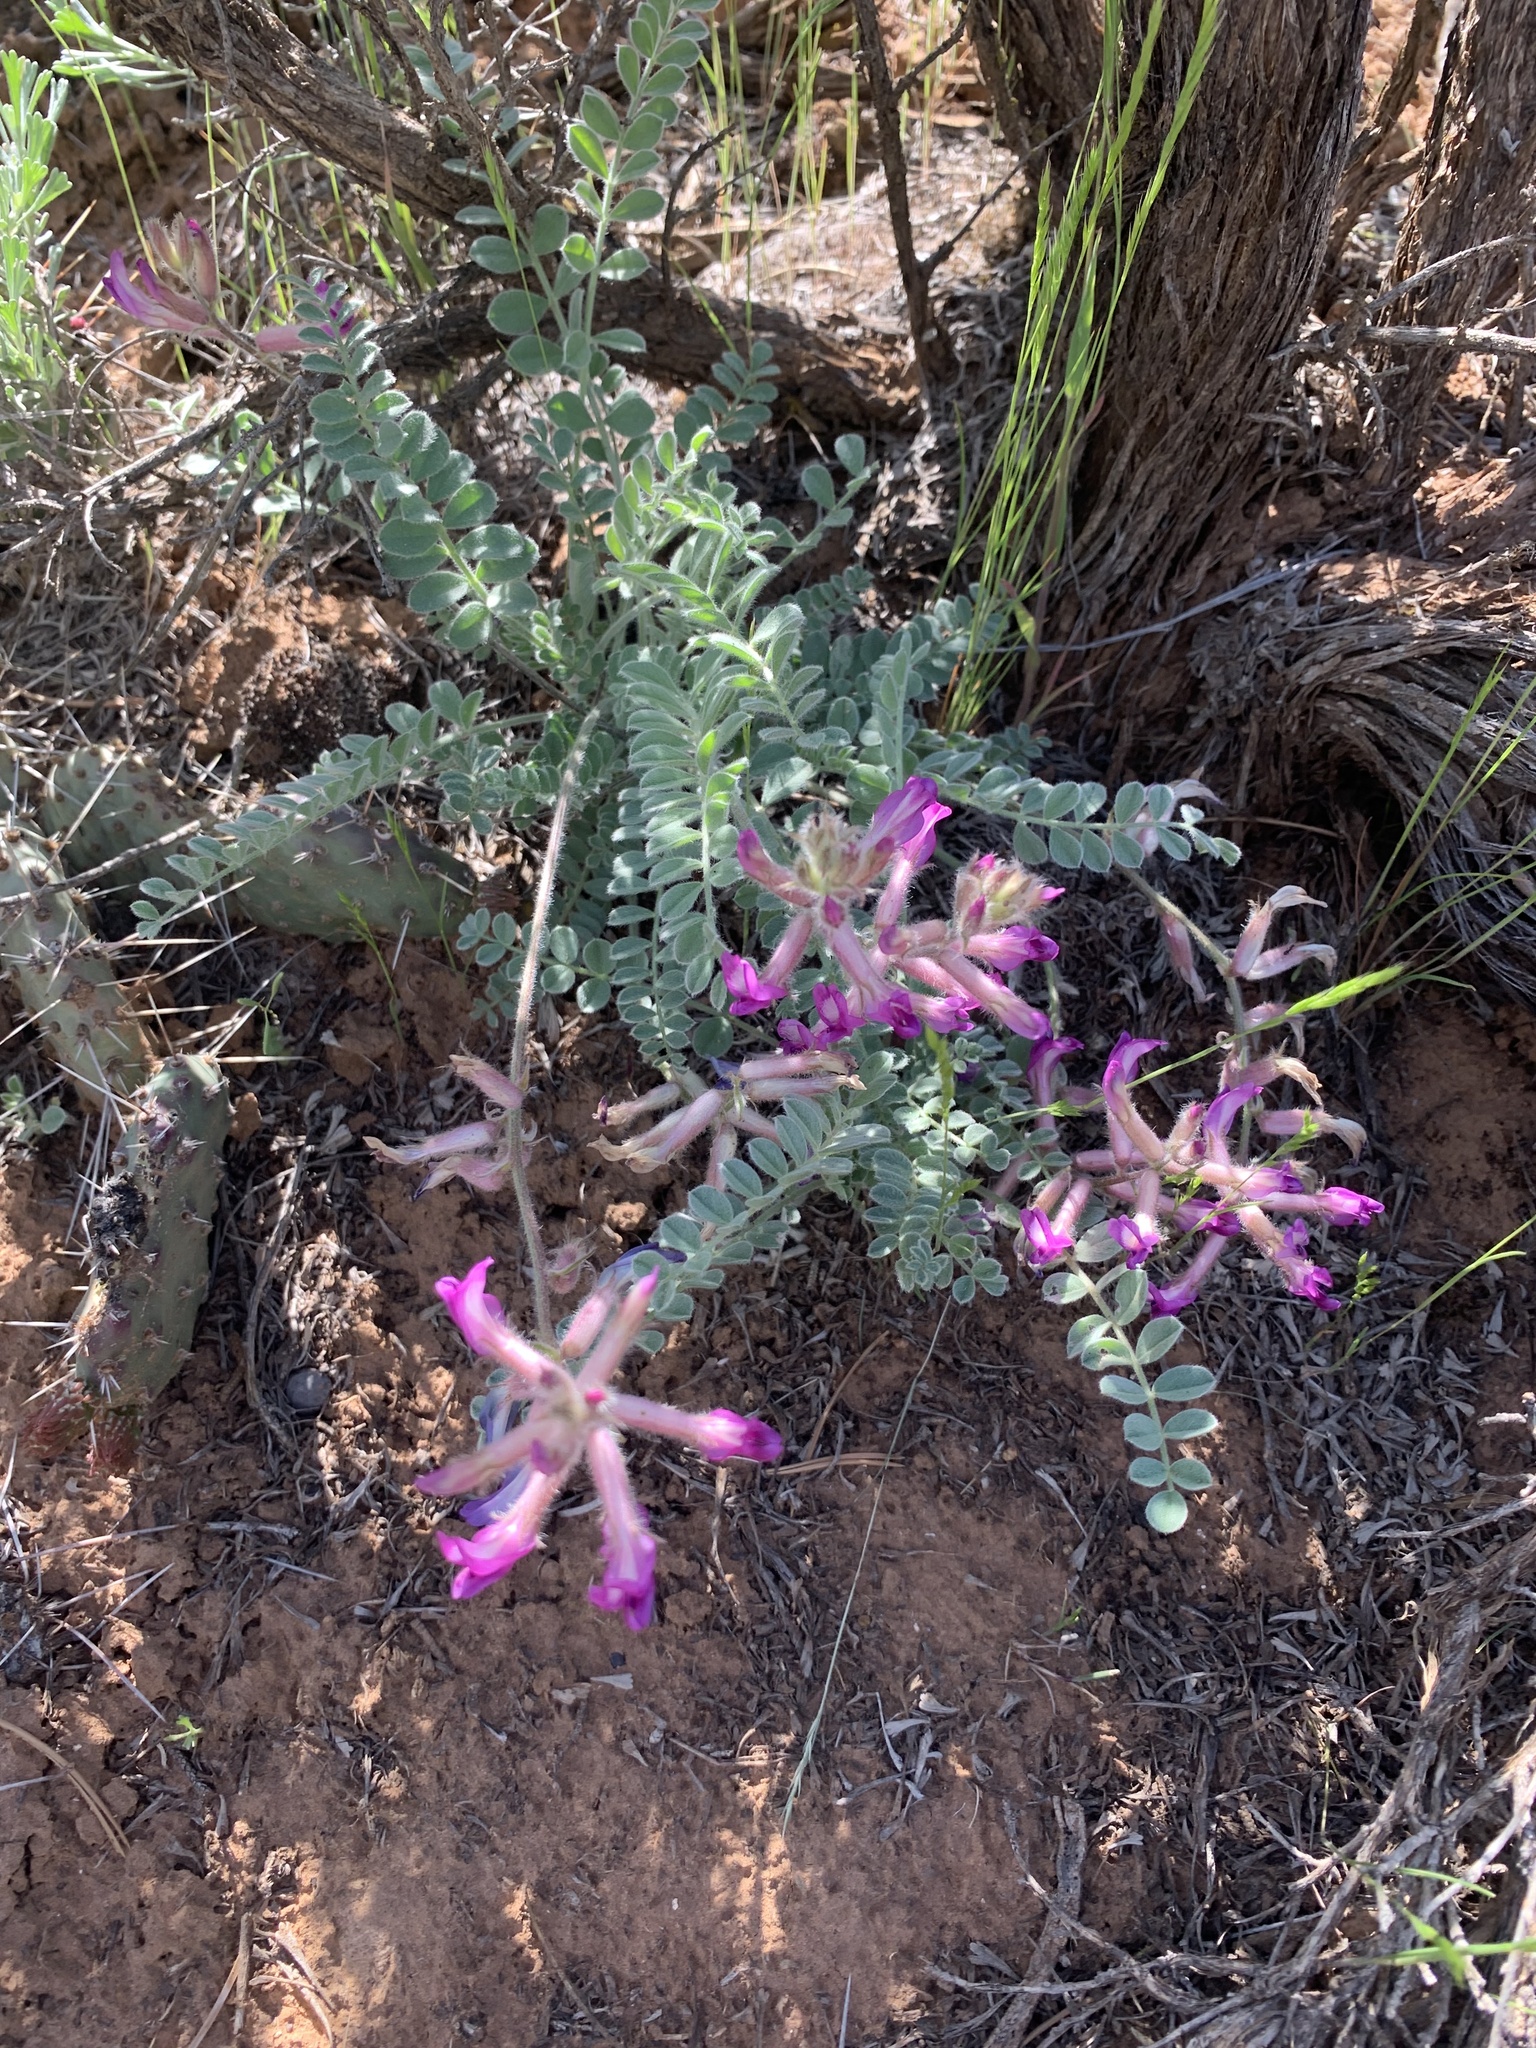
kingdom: Plantae
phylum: Tracheophyta
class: Magnoliopsida
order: Fabales
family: Fabaceae
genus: Astragalus
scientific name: Astragalus mollissimus
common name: Woolly locoweed
